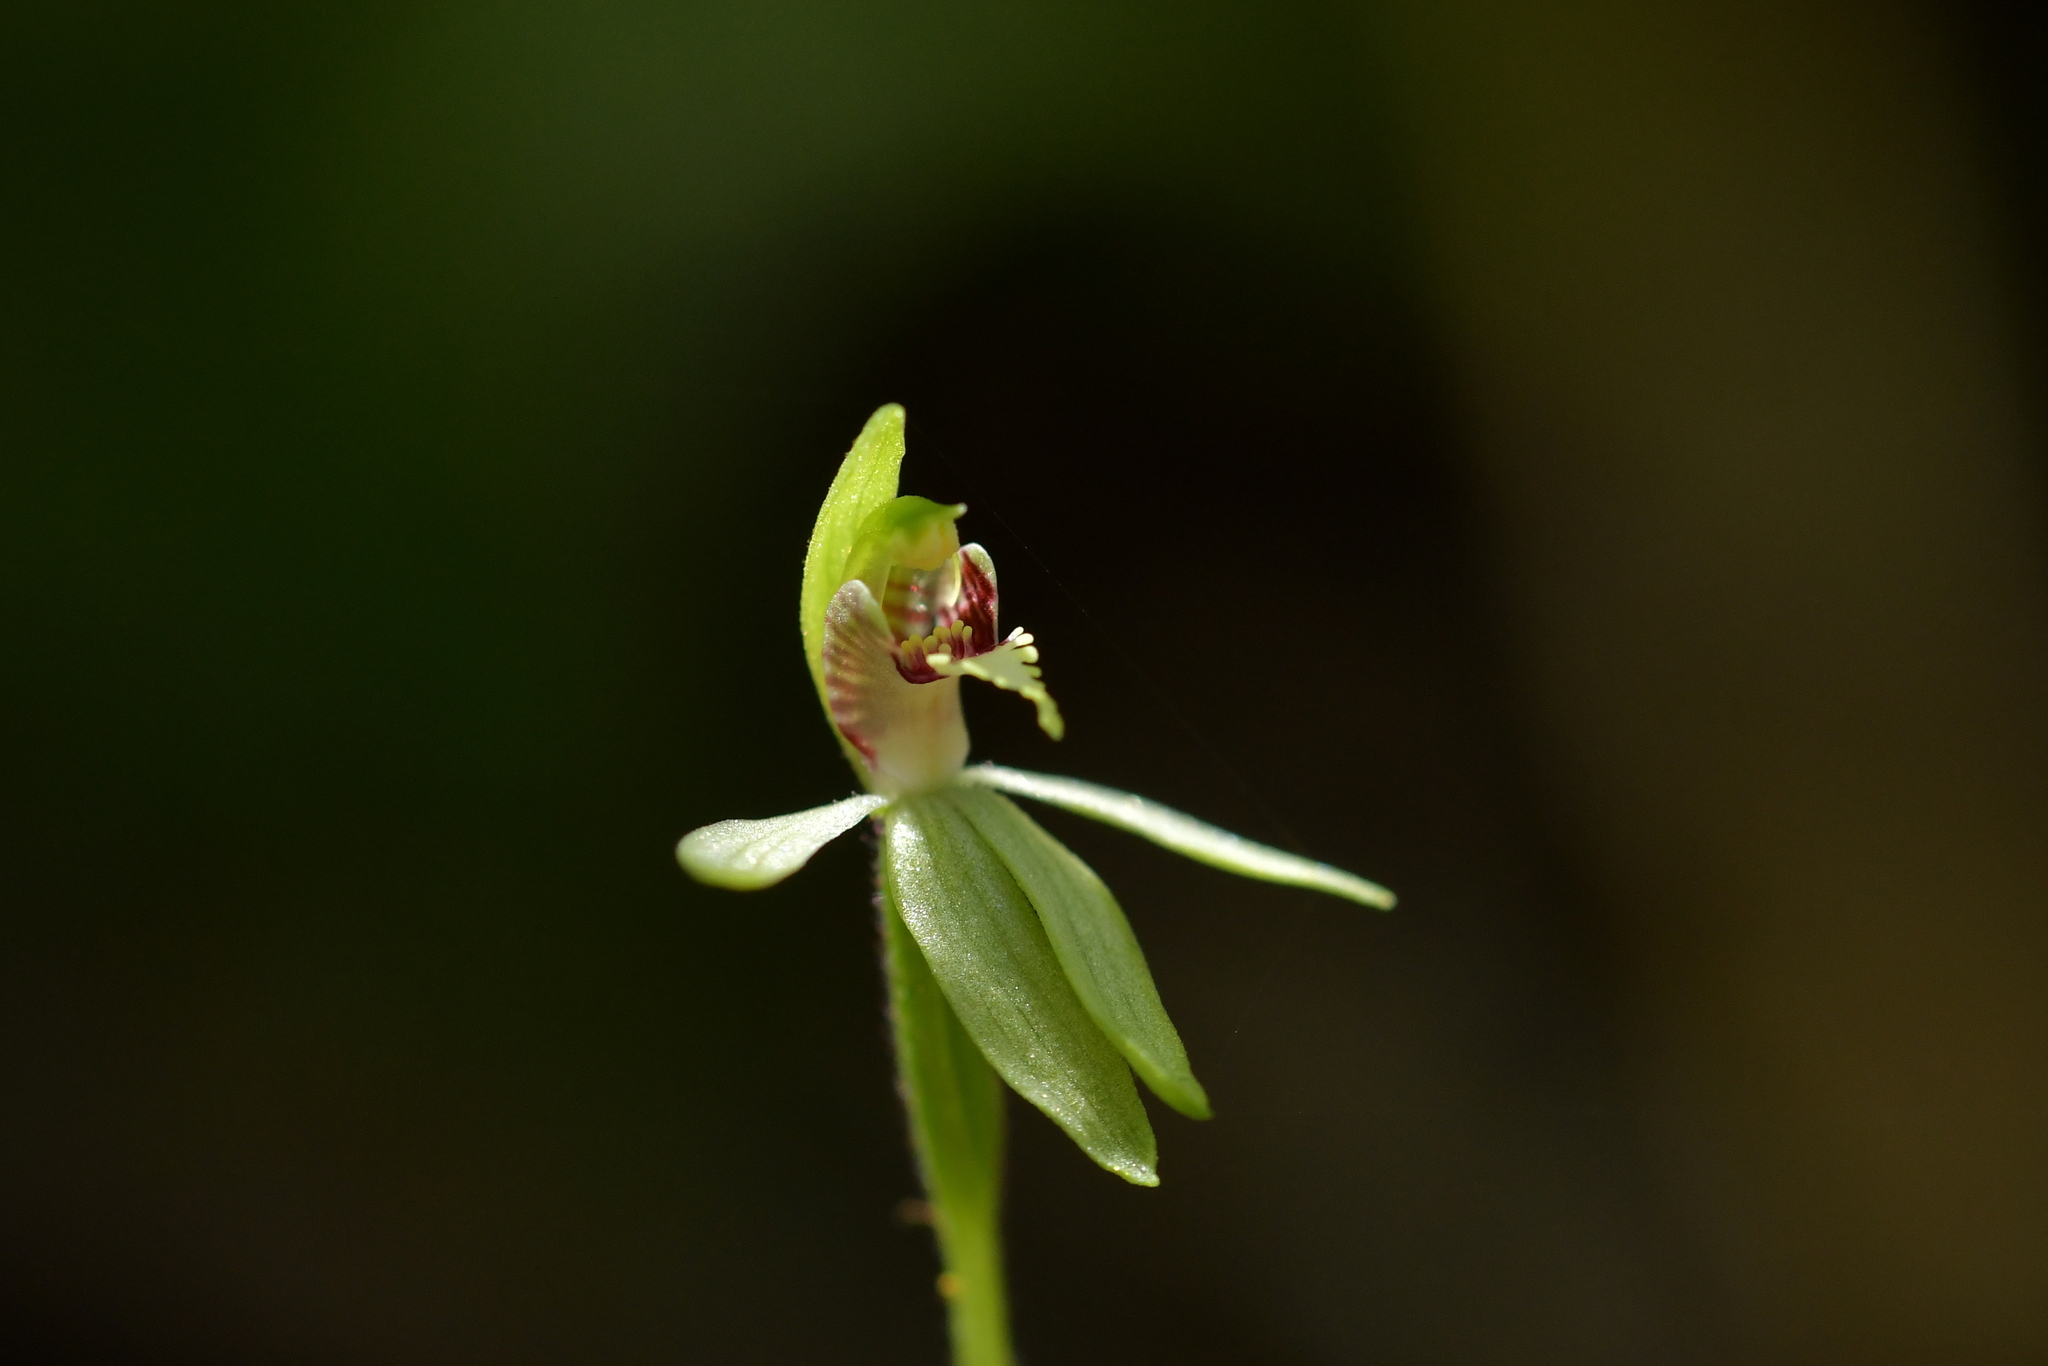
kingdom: Plantae
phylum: Tracheophyta
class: Liliopsida
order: Asparagales
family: Orchidaceae
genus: Caladenia
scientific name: Caladenia chlorostyla
